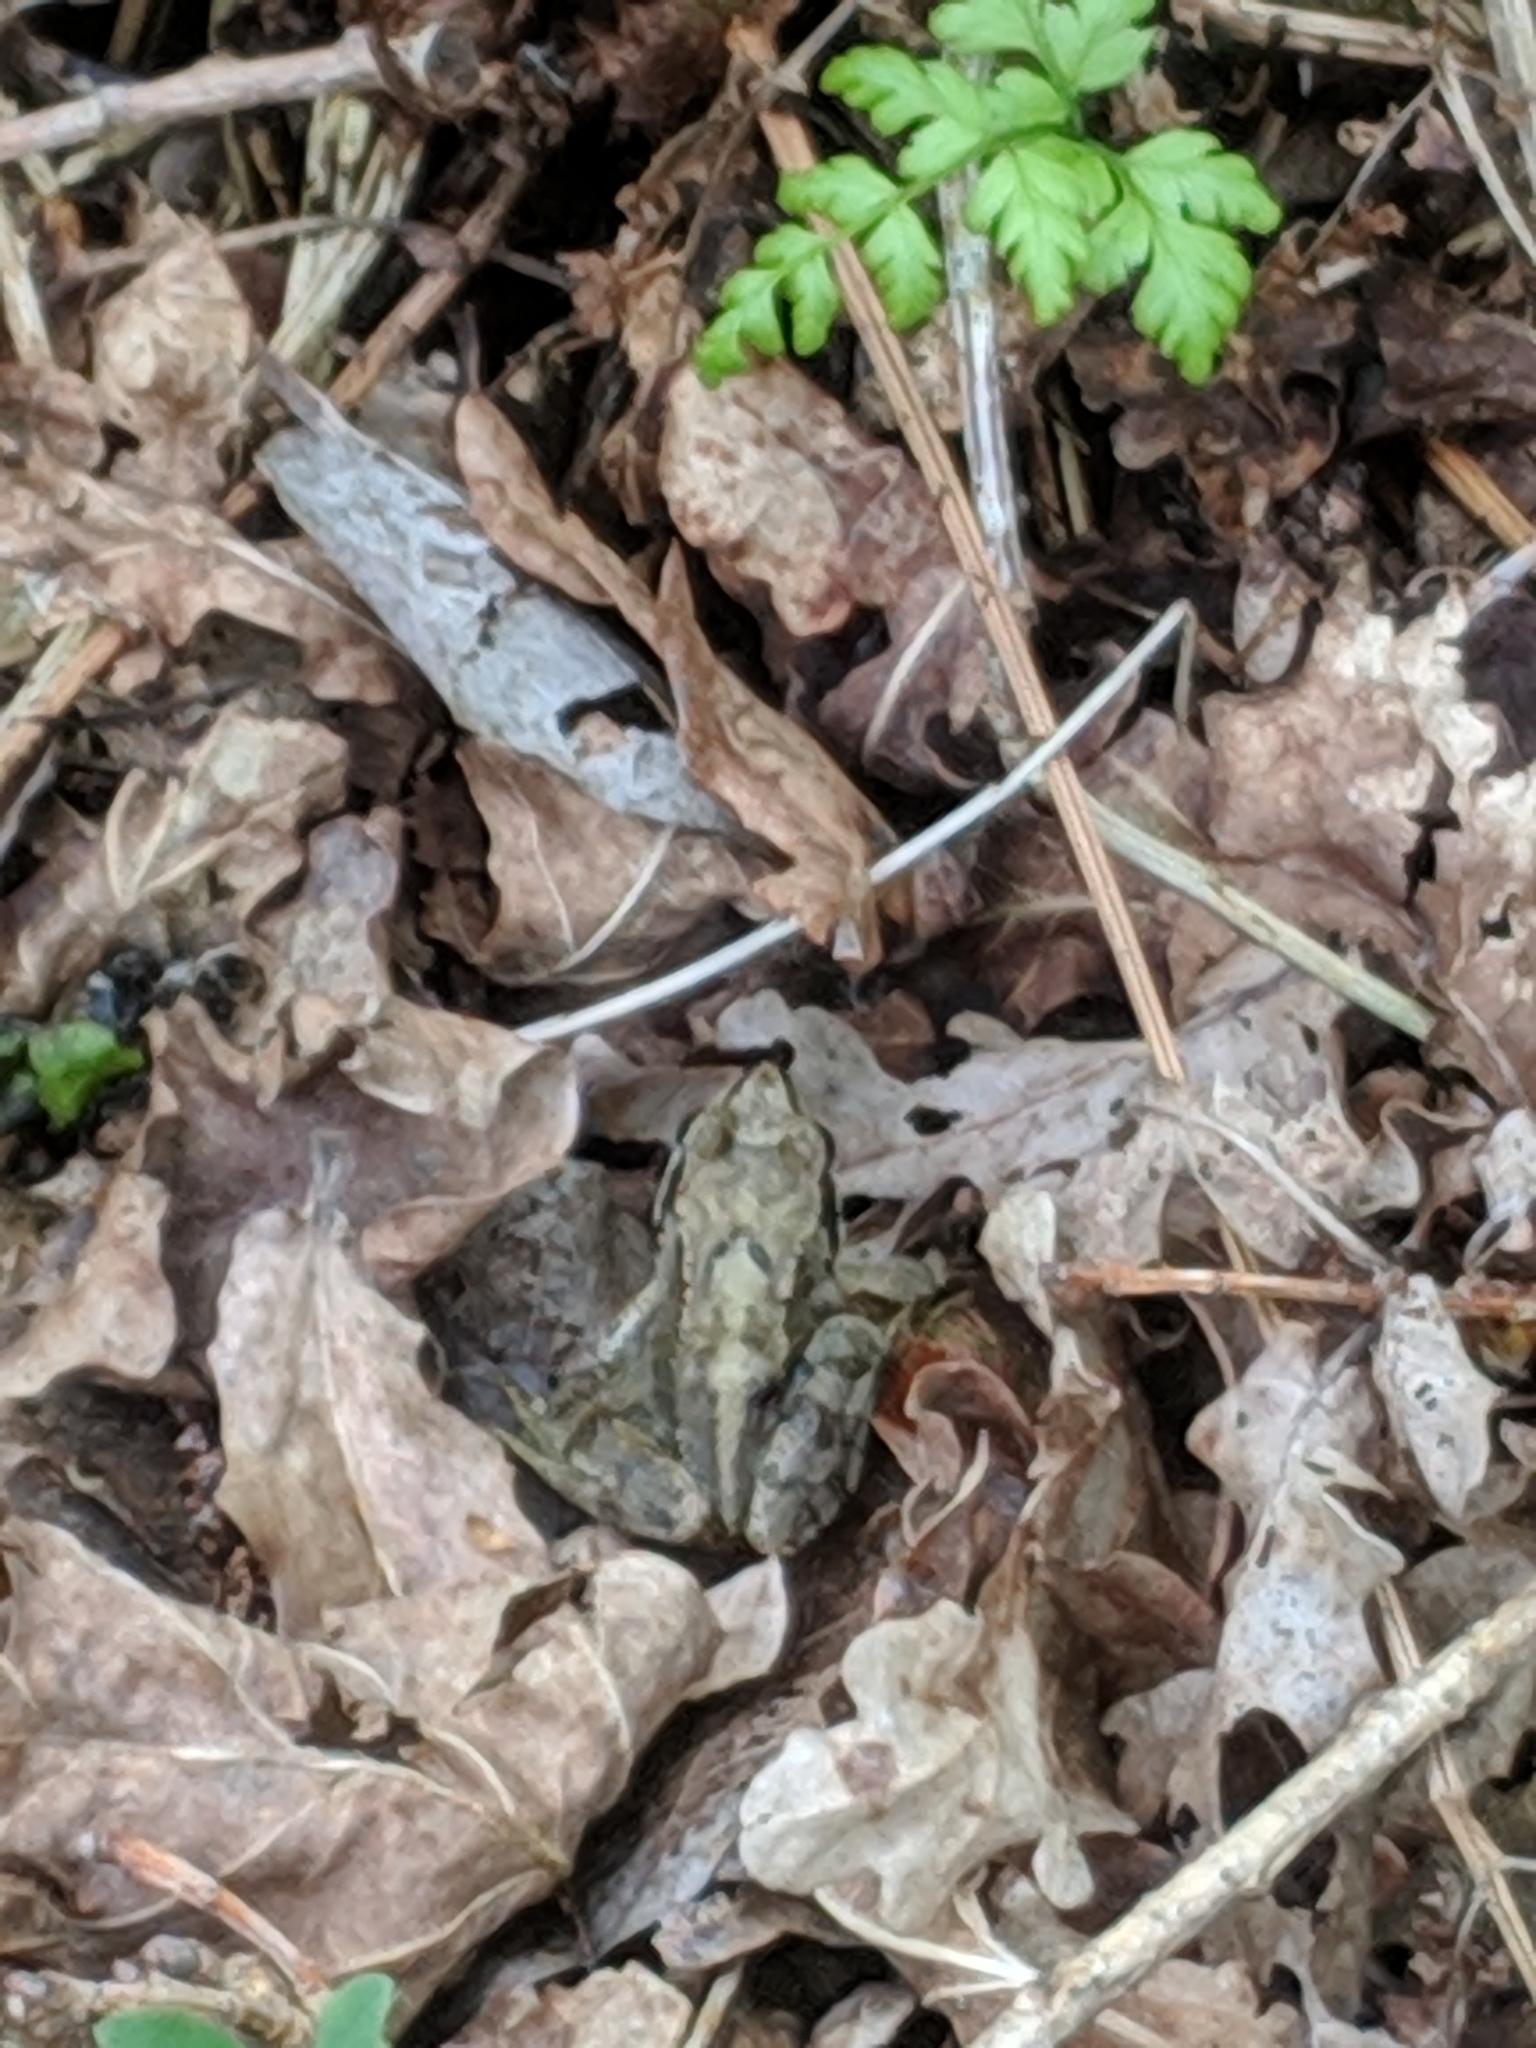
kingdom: Animalia
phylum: Chordata
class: Amphibia
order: Anura
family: Ranidae
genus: Rana
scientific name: Rana temporaria
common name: Common frog
